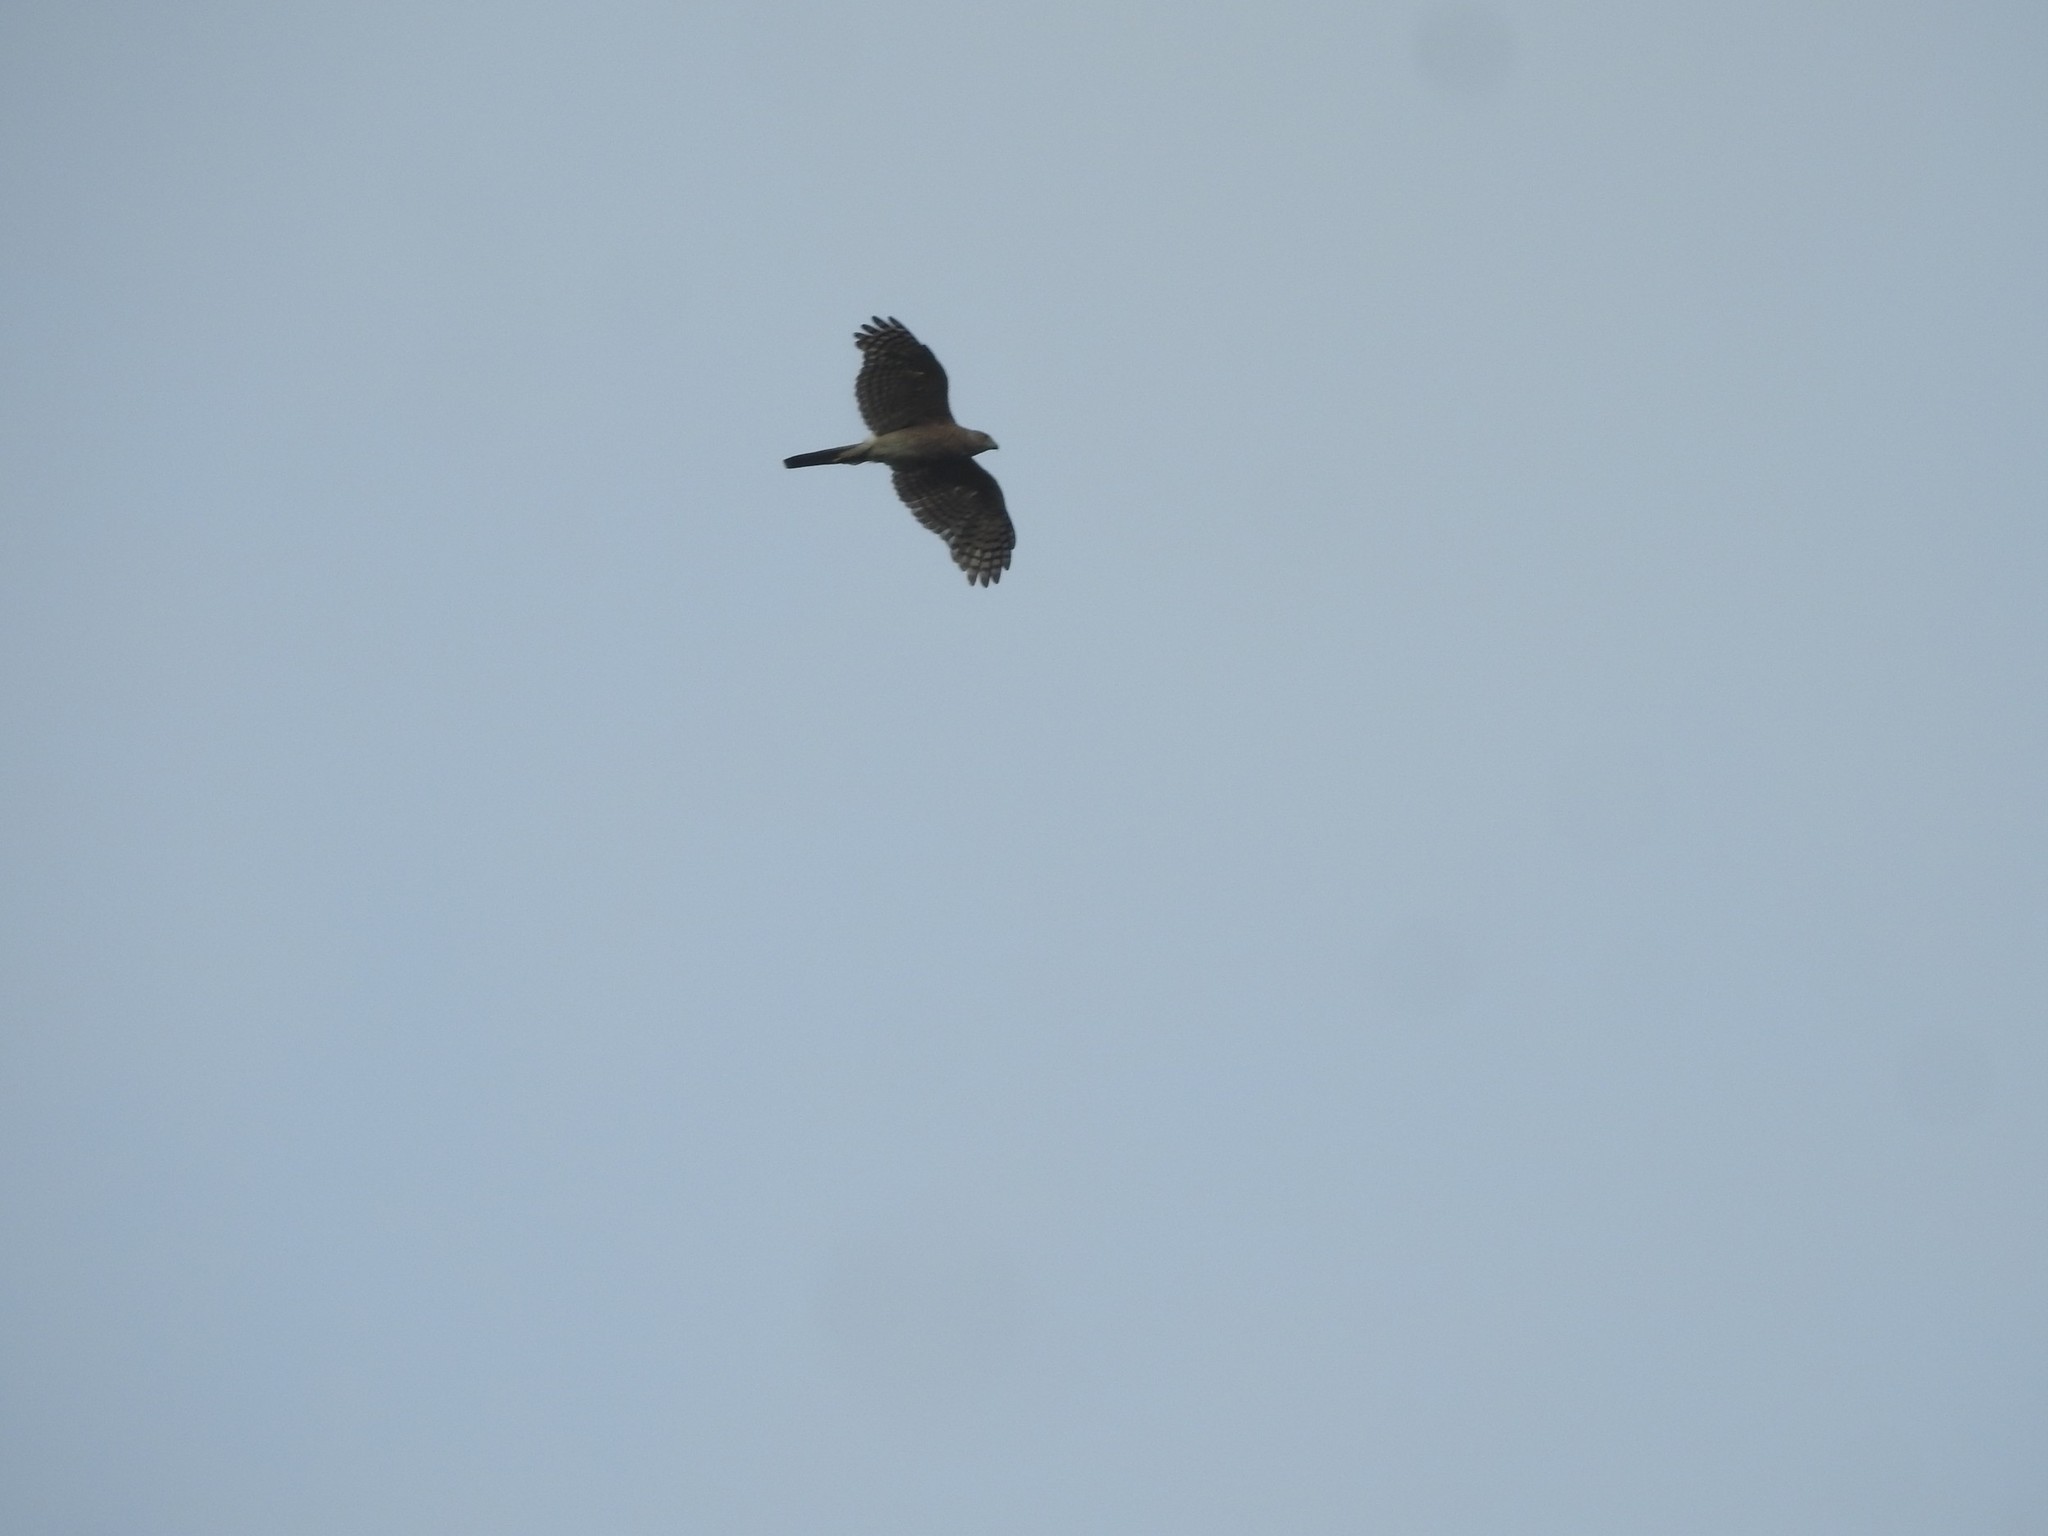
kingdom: Animalia
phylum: Chordata
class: Aves
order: Accipitriformes
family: Accipitridae
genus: Accipiter
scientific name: Accipiter badius
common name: Shikra
